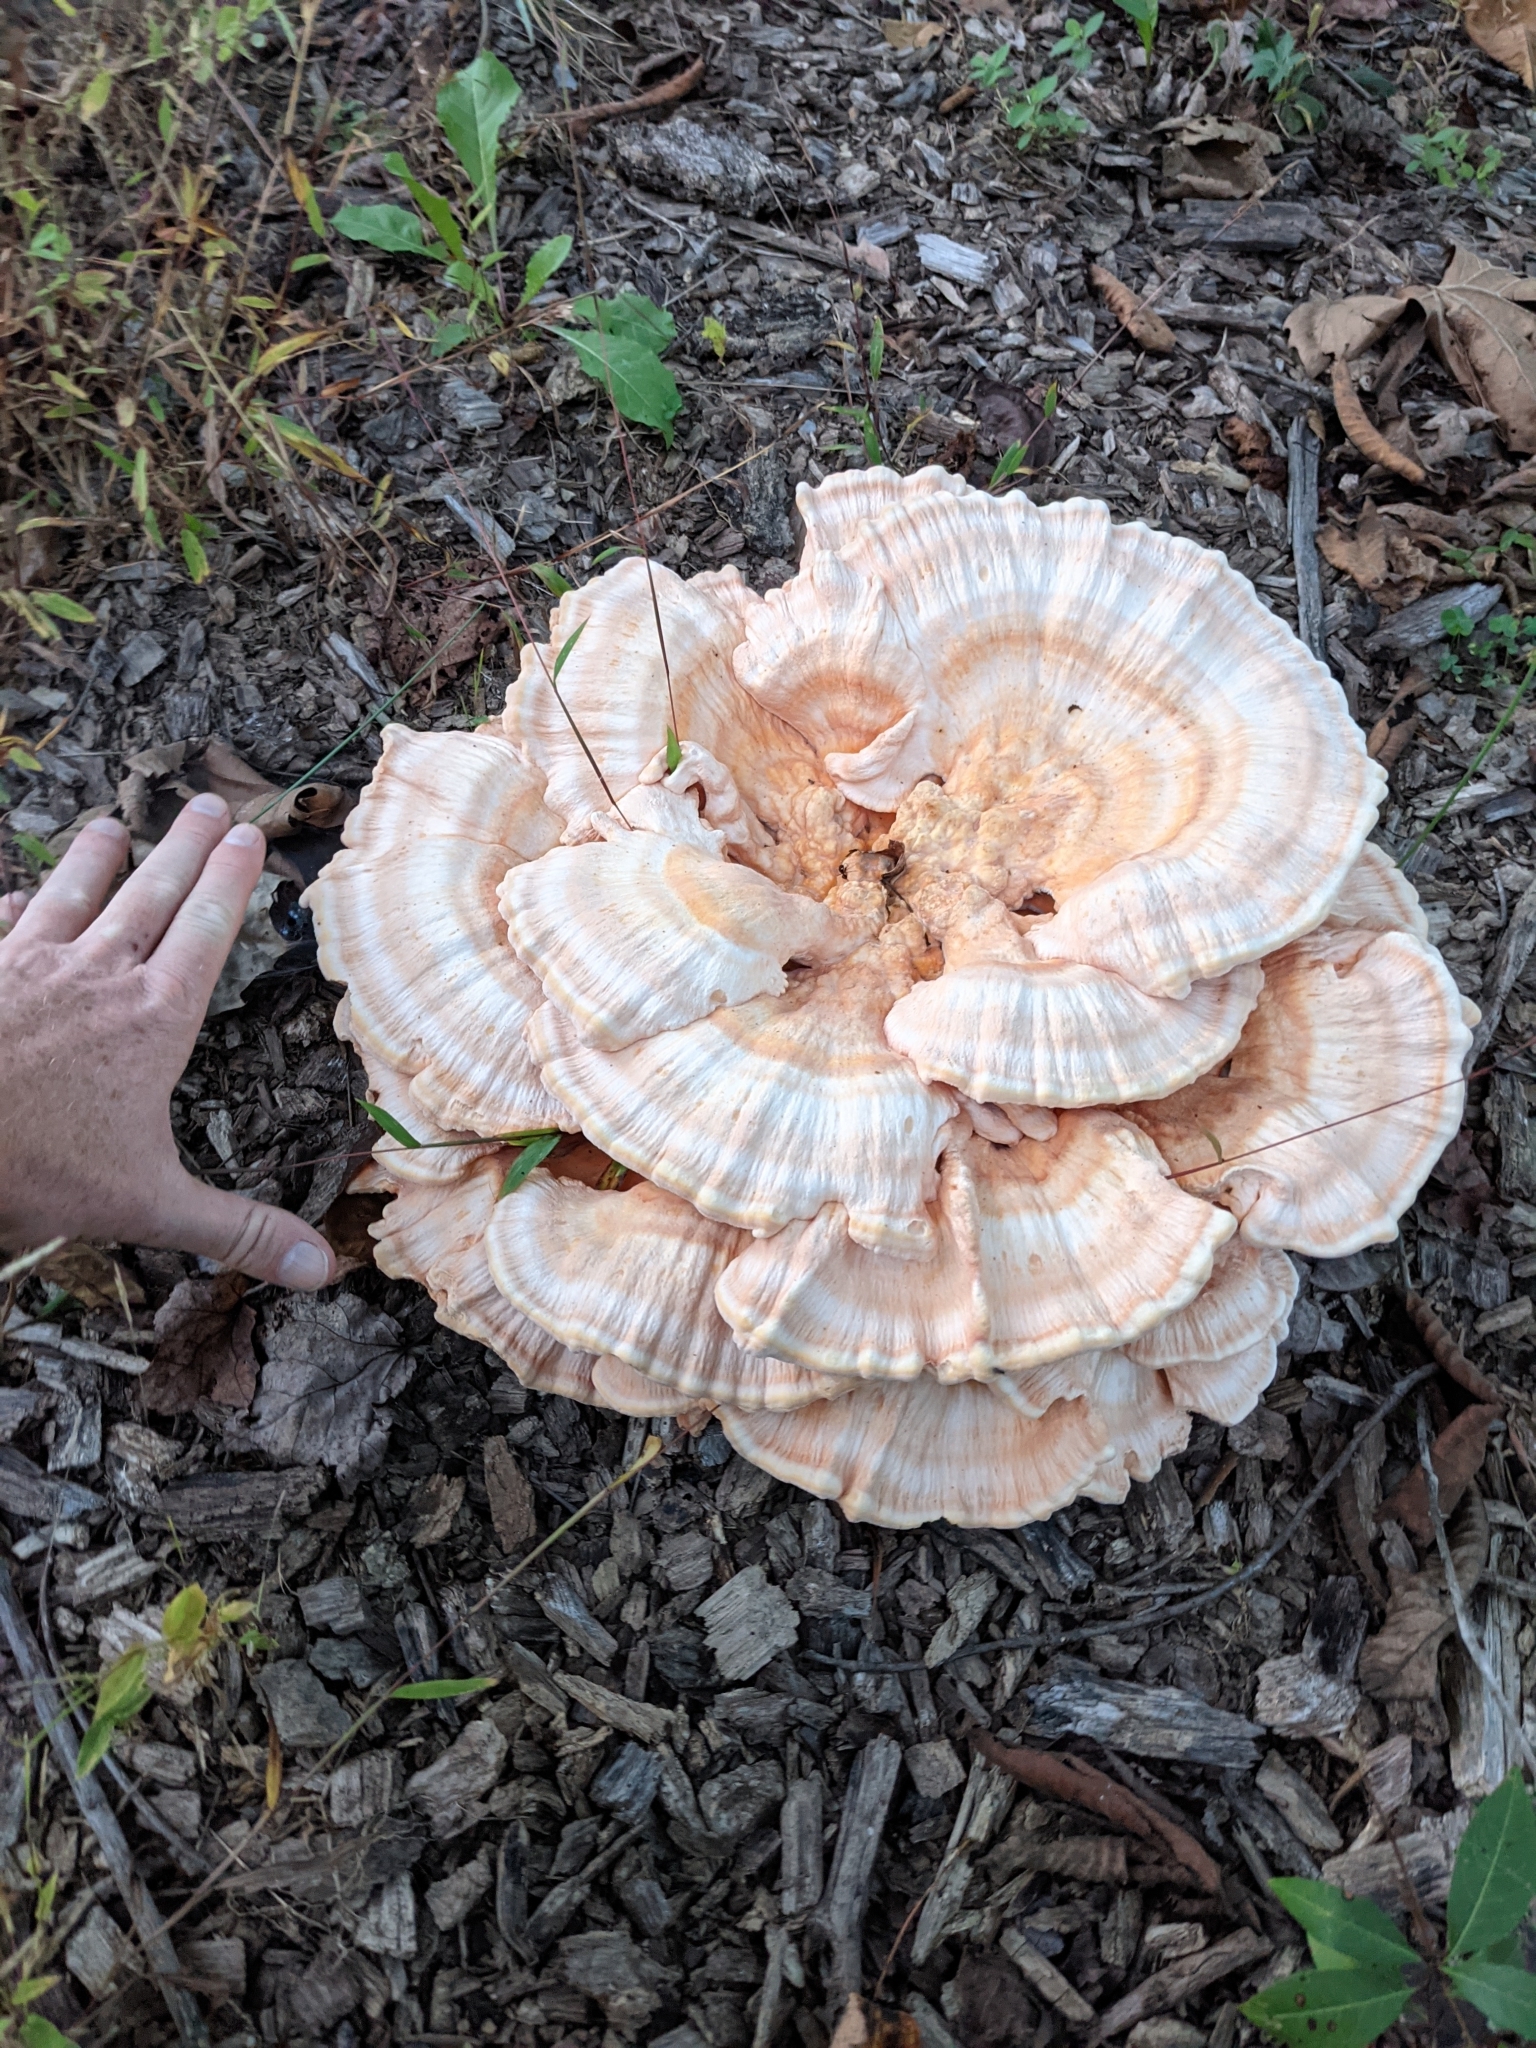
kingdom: Fungi
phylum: Basidiomycota
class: Agaricomycetes
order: Polyporales
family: Laetiporaceae
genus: Laetiporus
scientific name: Laetiporus sulphureus
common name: Chicken of the woods
